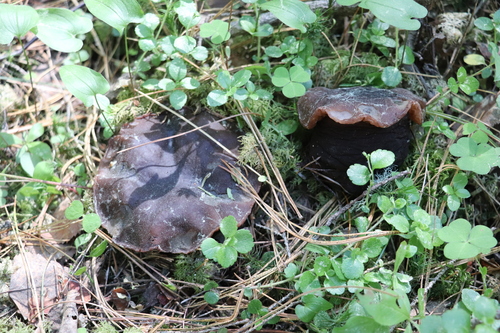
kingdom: Fungi
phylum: Ascomycota
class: Pezizomycetes
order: Pezizales
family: Sarcosomataceae
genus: Sarcosoma
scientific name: Sarcosoma globosum
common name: Charred-pancake cup
